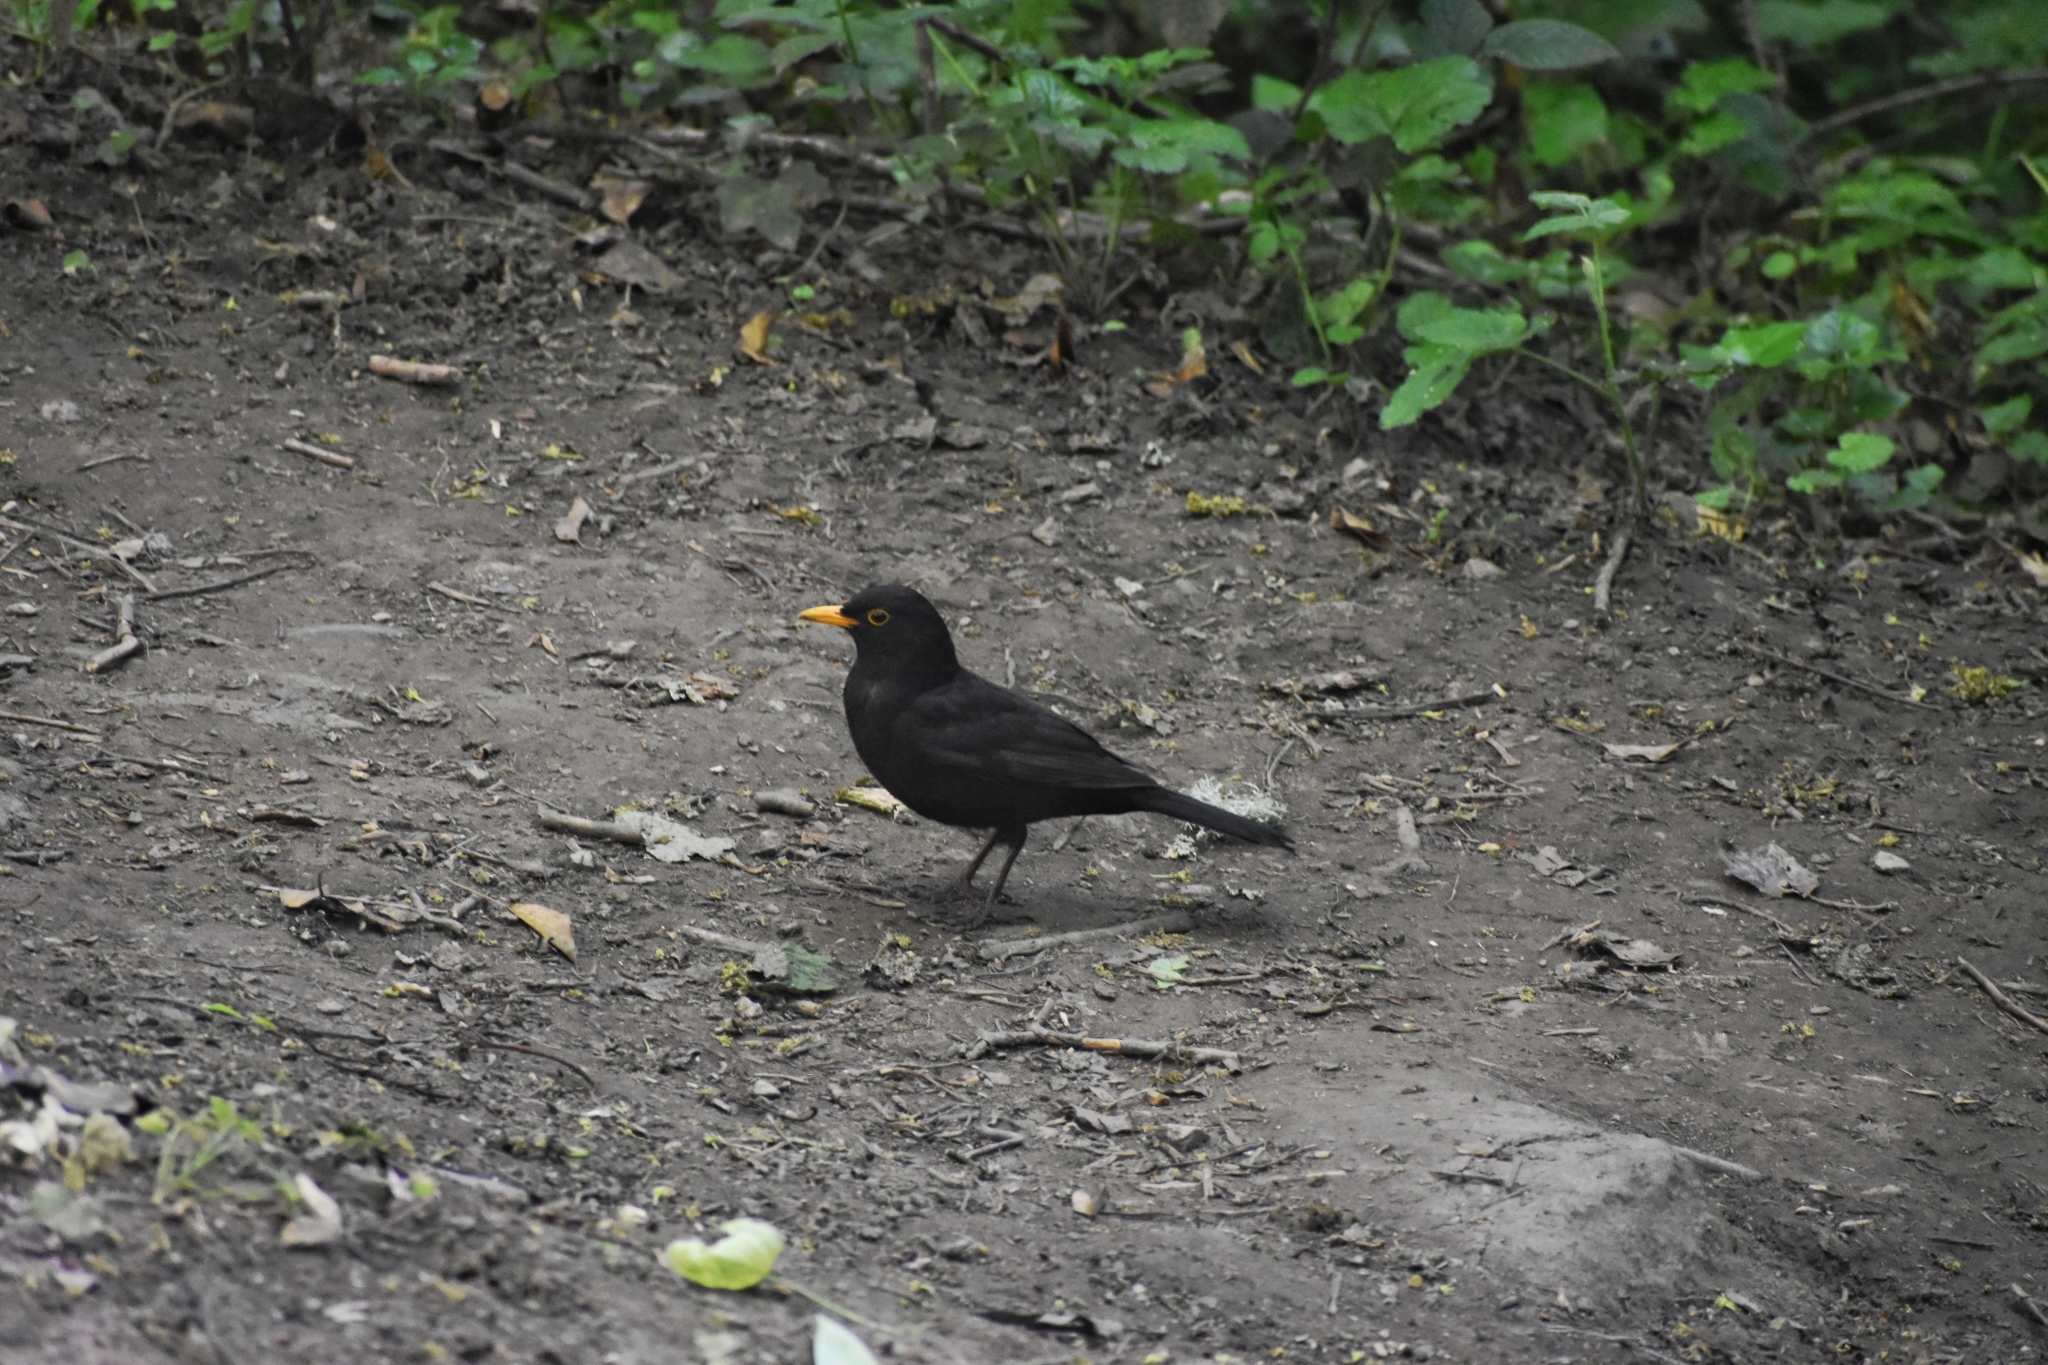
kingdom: Animalia
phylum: Chordata
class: Aves
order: Passeriformes
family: Turdidae
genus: Turdus
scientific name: Turdus merula
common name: Common blackbird
